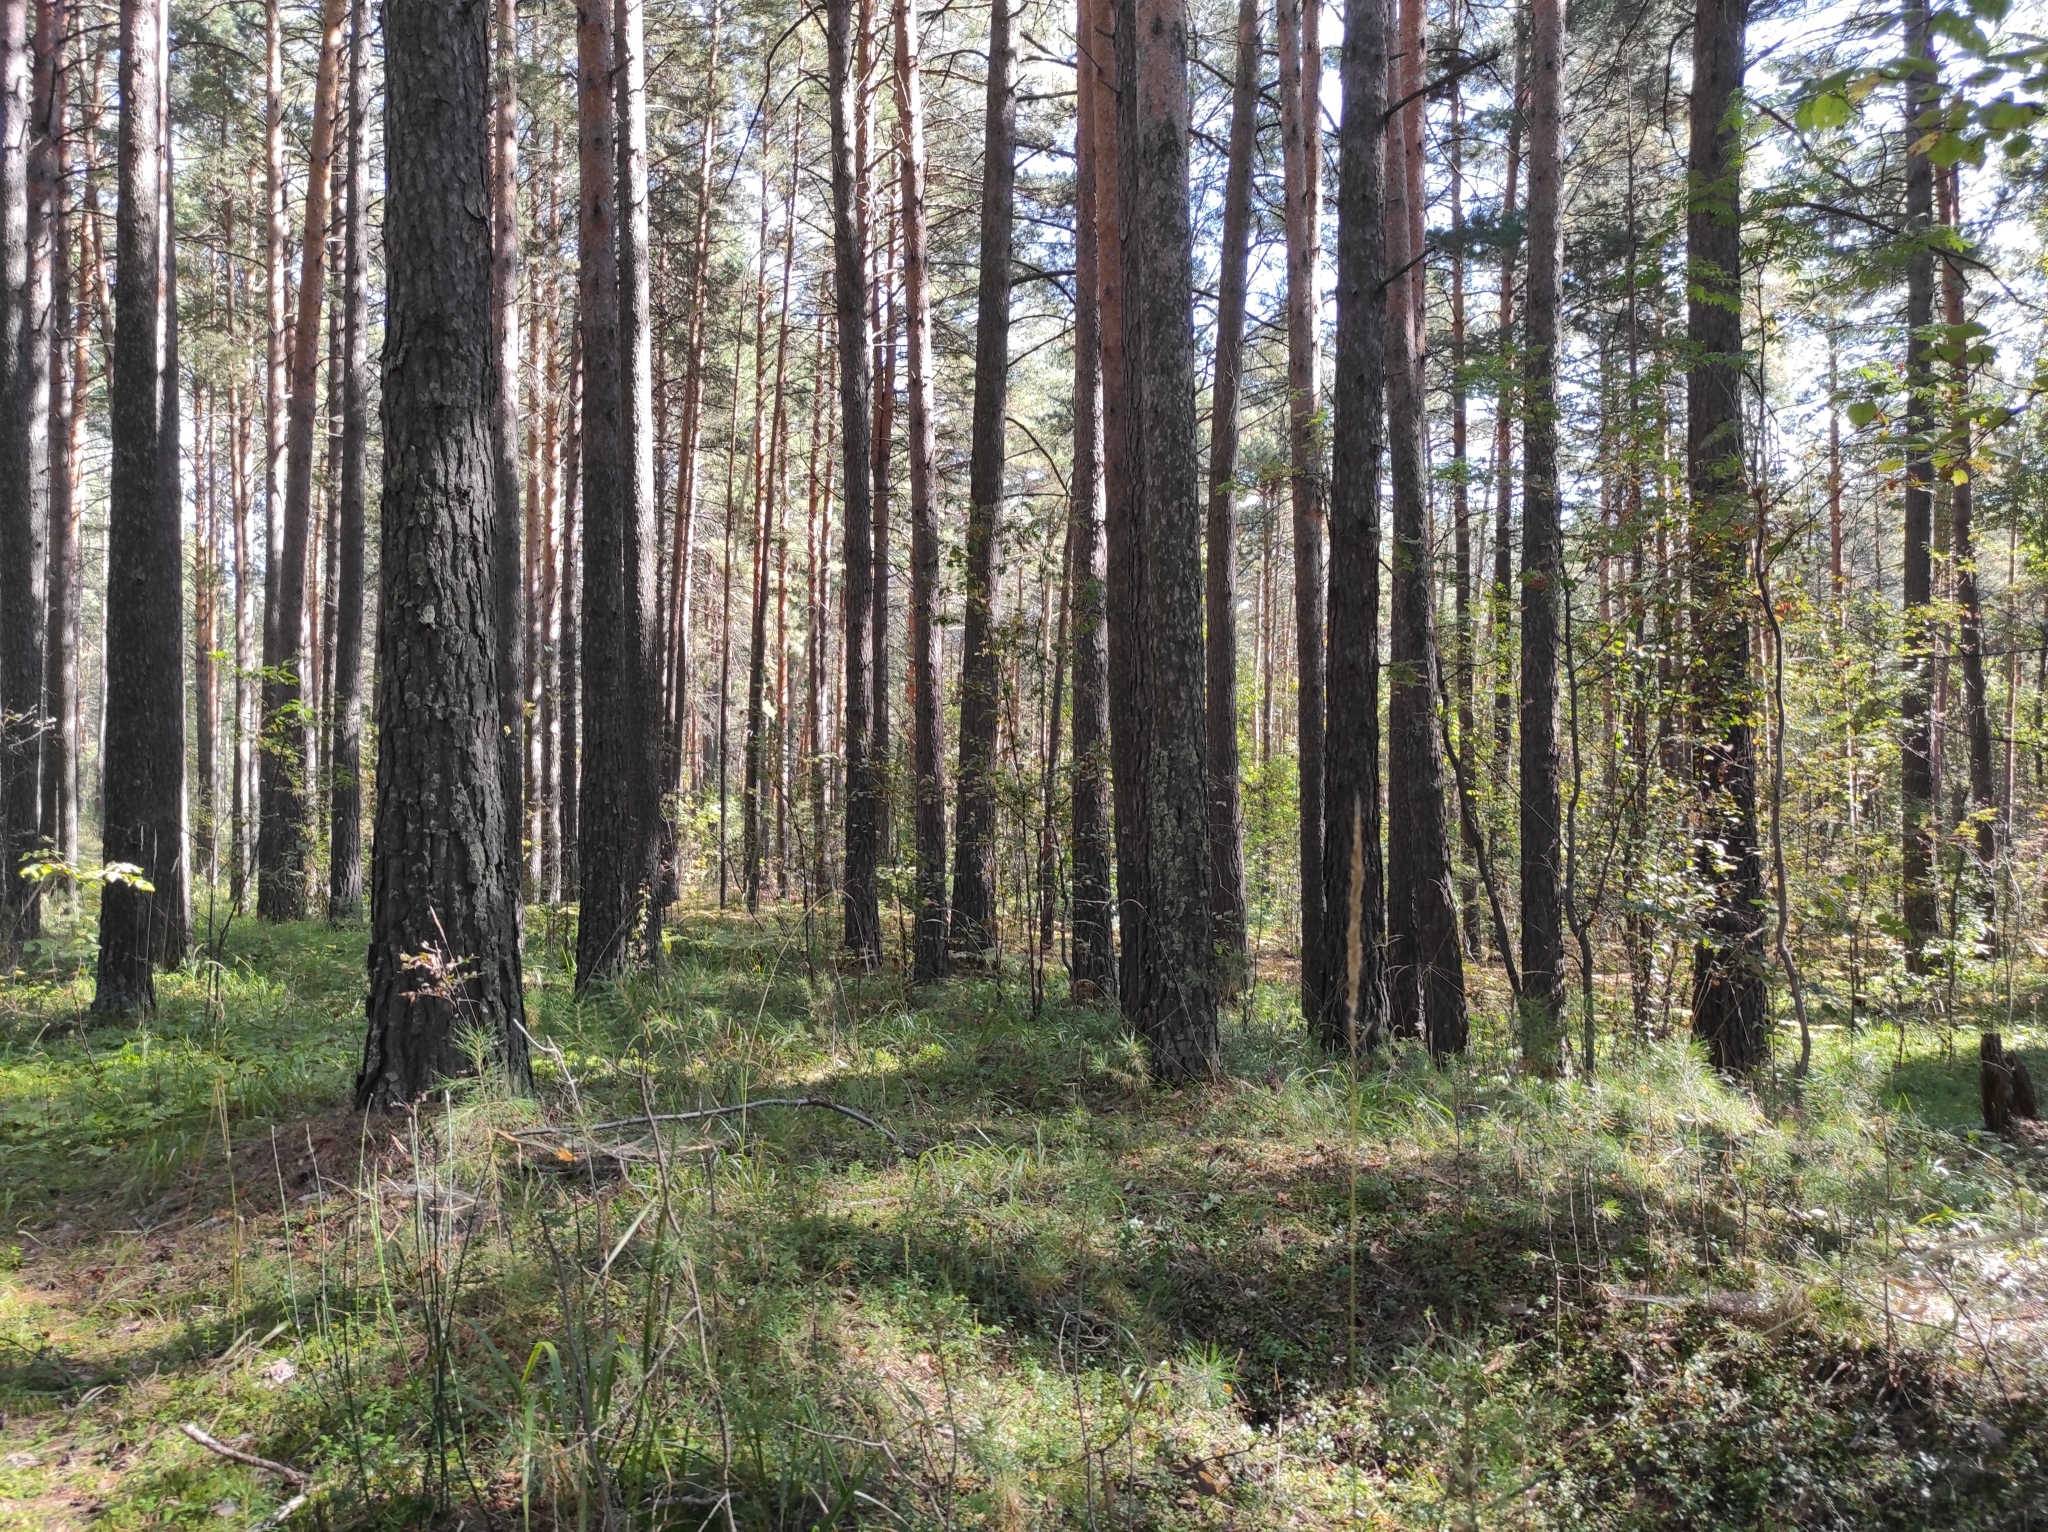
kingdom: Plantae
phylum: Tracheophyta
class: Pinopsida
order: Pinales
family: Pinaceae
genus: Pinus
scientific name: Pinus sylvestris
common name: Scots pine
